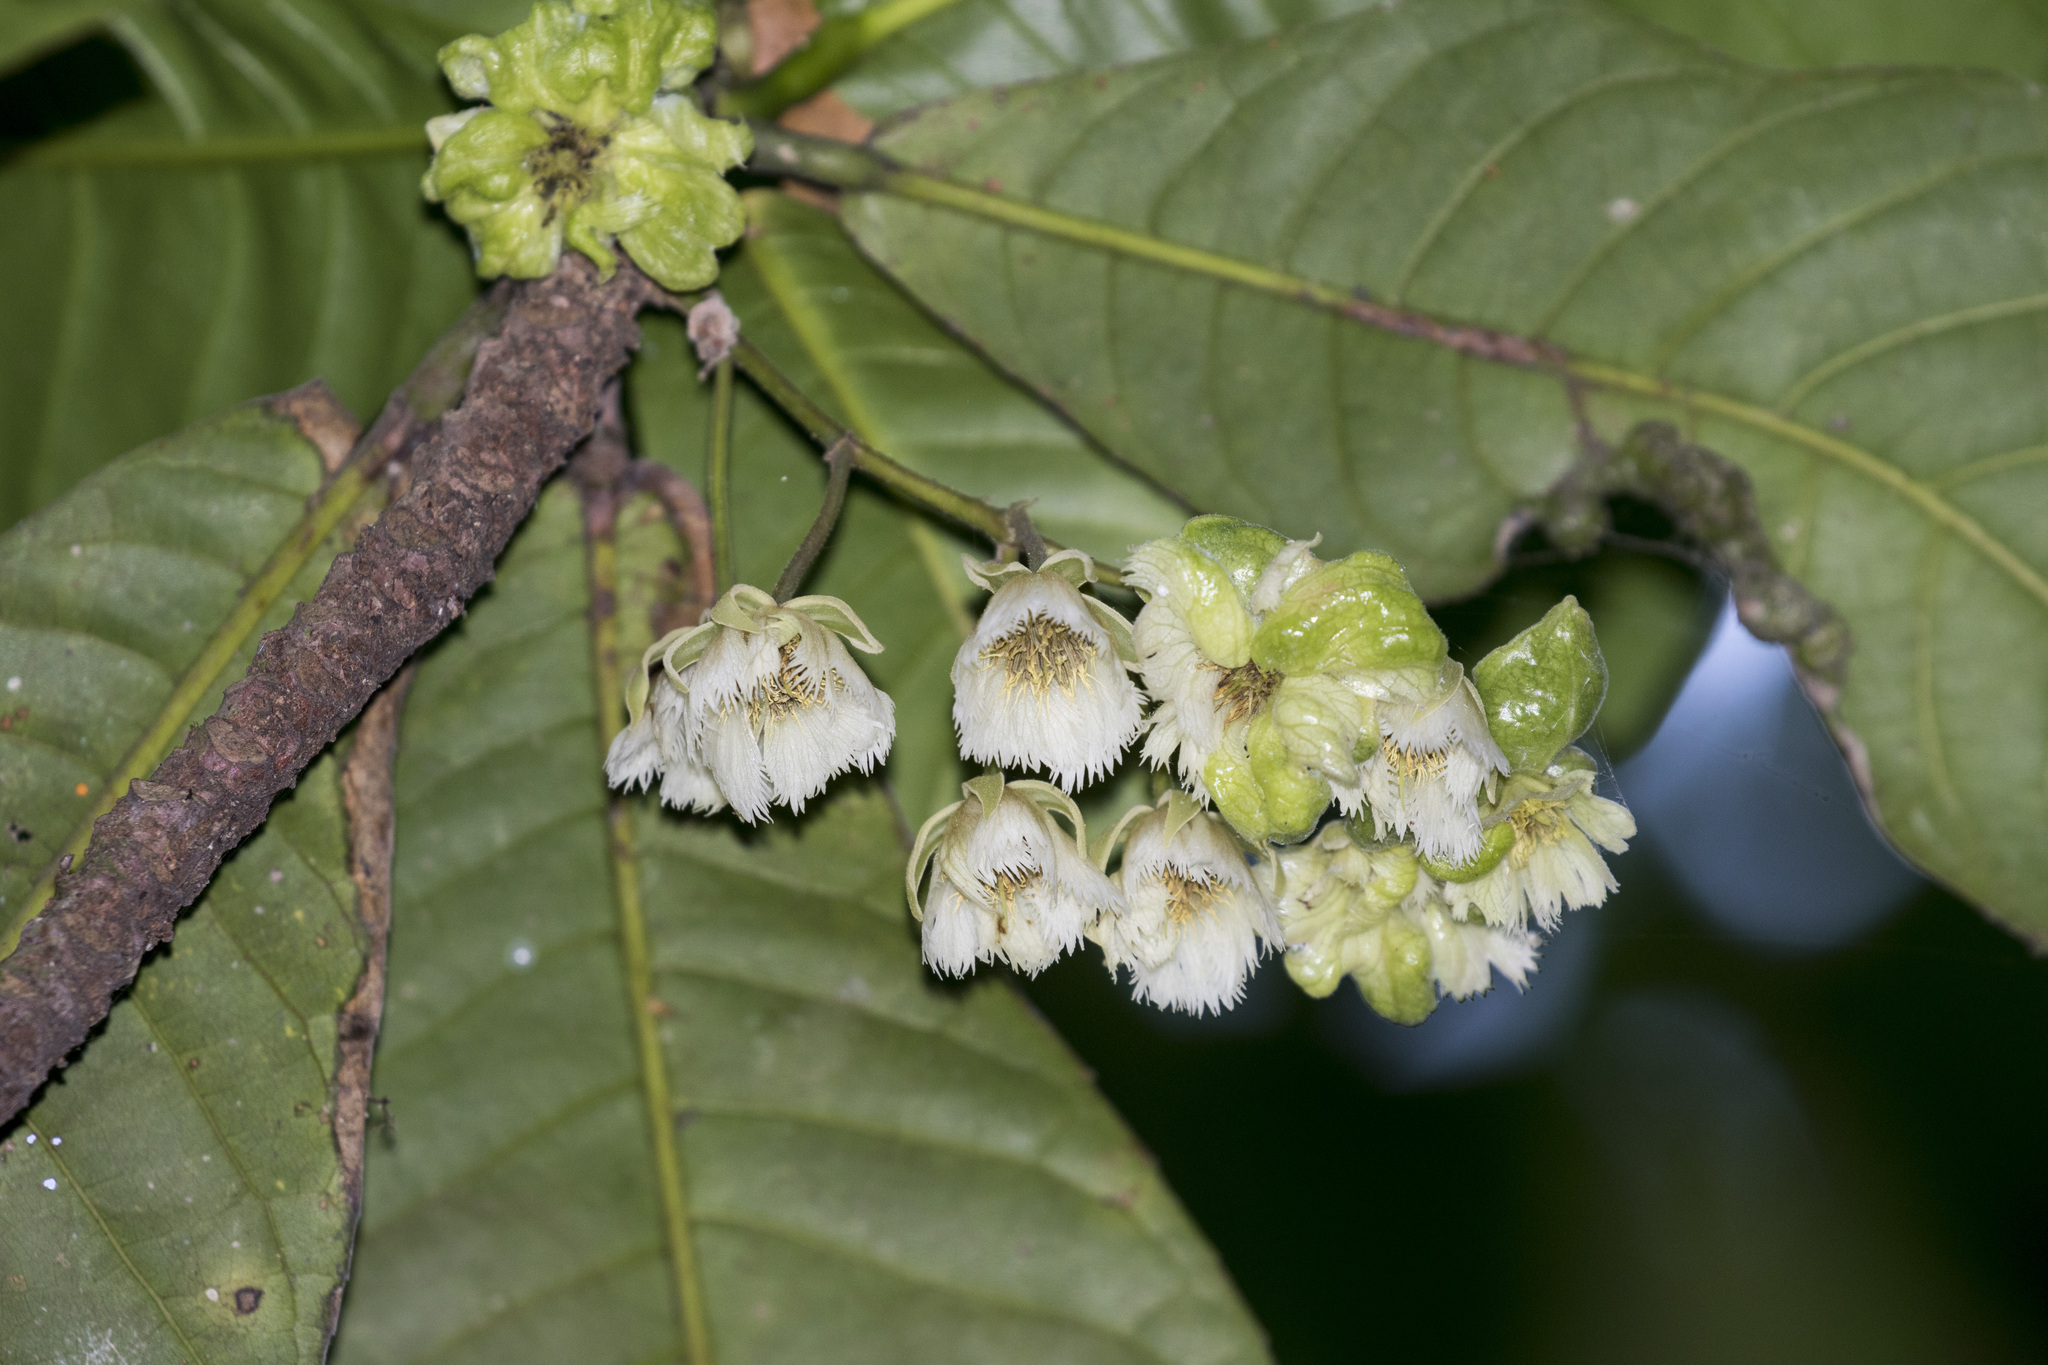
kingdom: Plantae
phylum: Tracheophyta
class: Magnoliopsida
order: Oxalidales
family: Elaeocarpaceae
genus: Elaeocarpus
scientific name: Elaeocarpus tuberculatus
